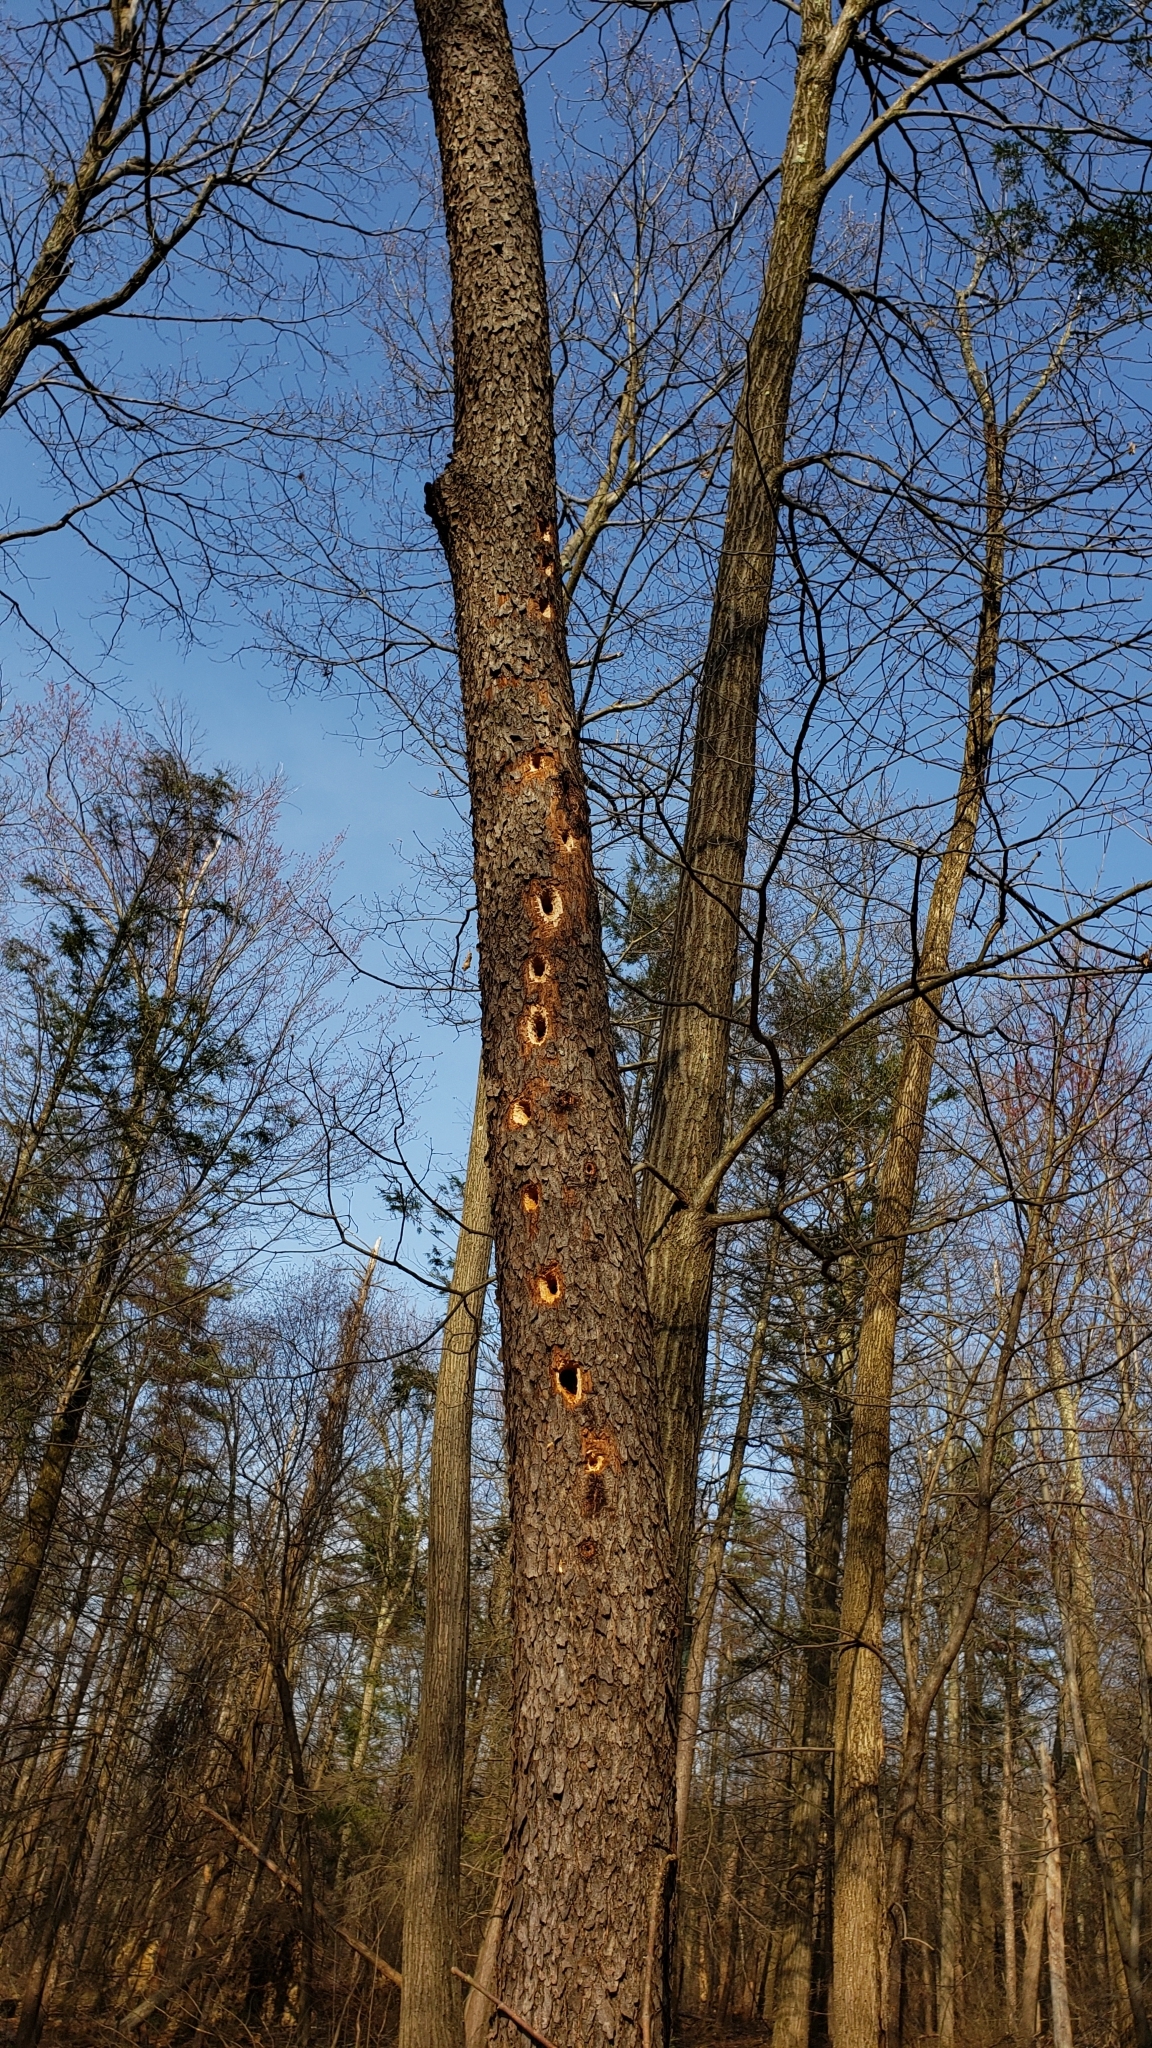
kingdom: Animalia
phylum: Chordata
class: Aves
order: Piciformes
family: Picidae
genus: Dryocopus
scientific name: Dryocopus pileatus
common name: Pileated woodpecker
